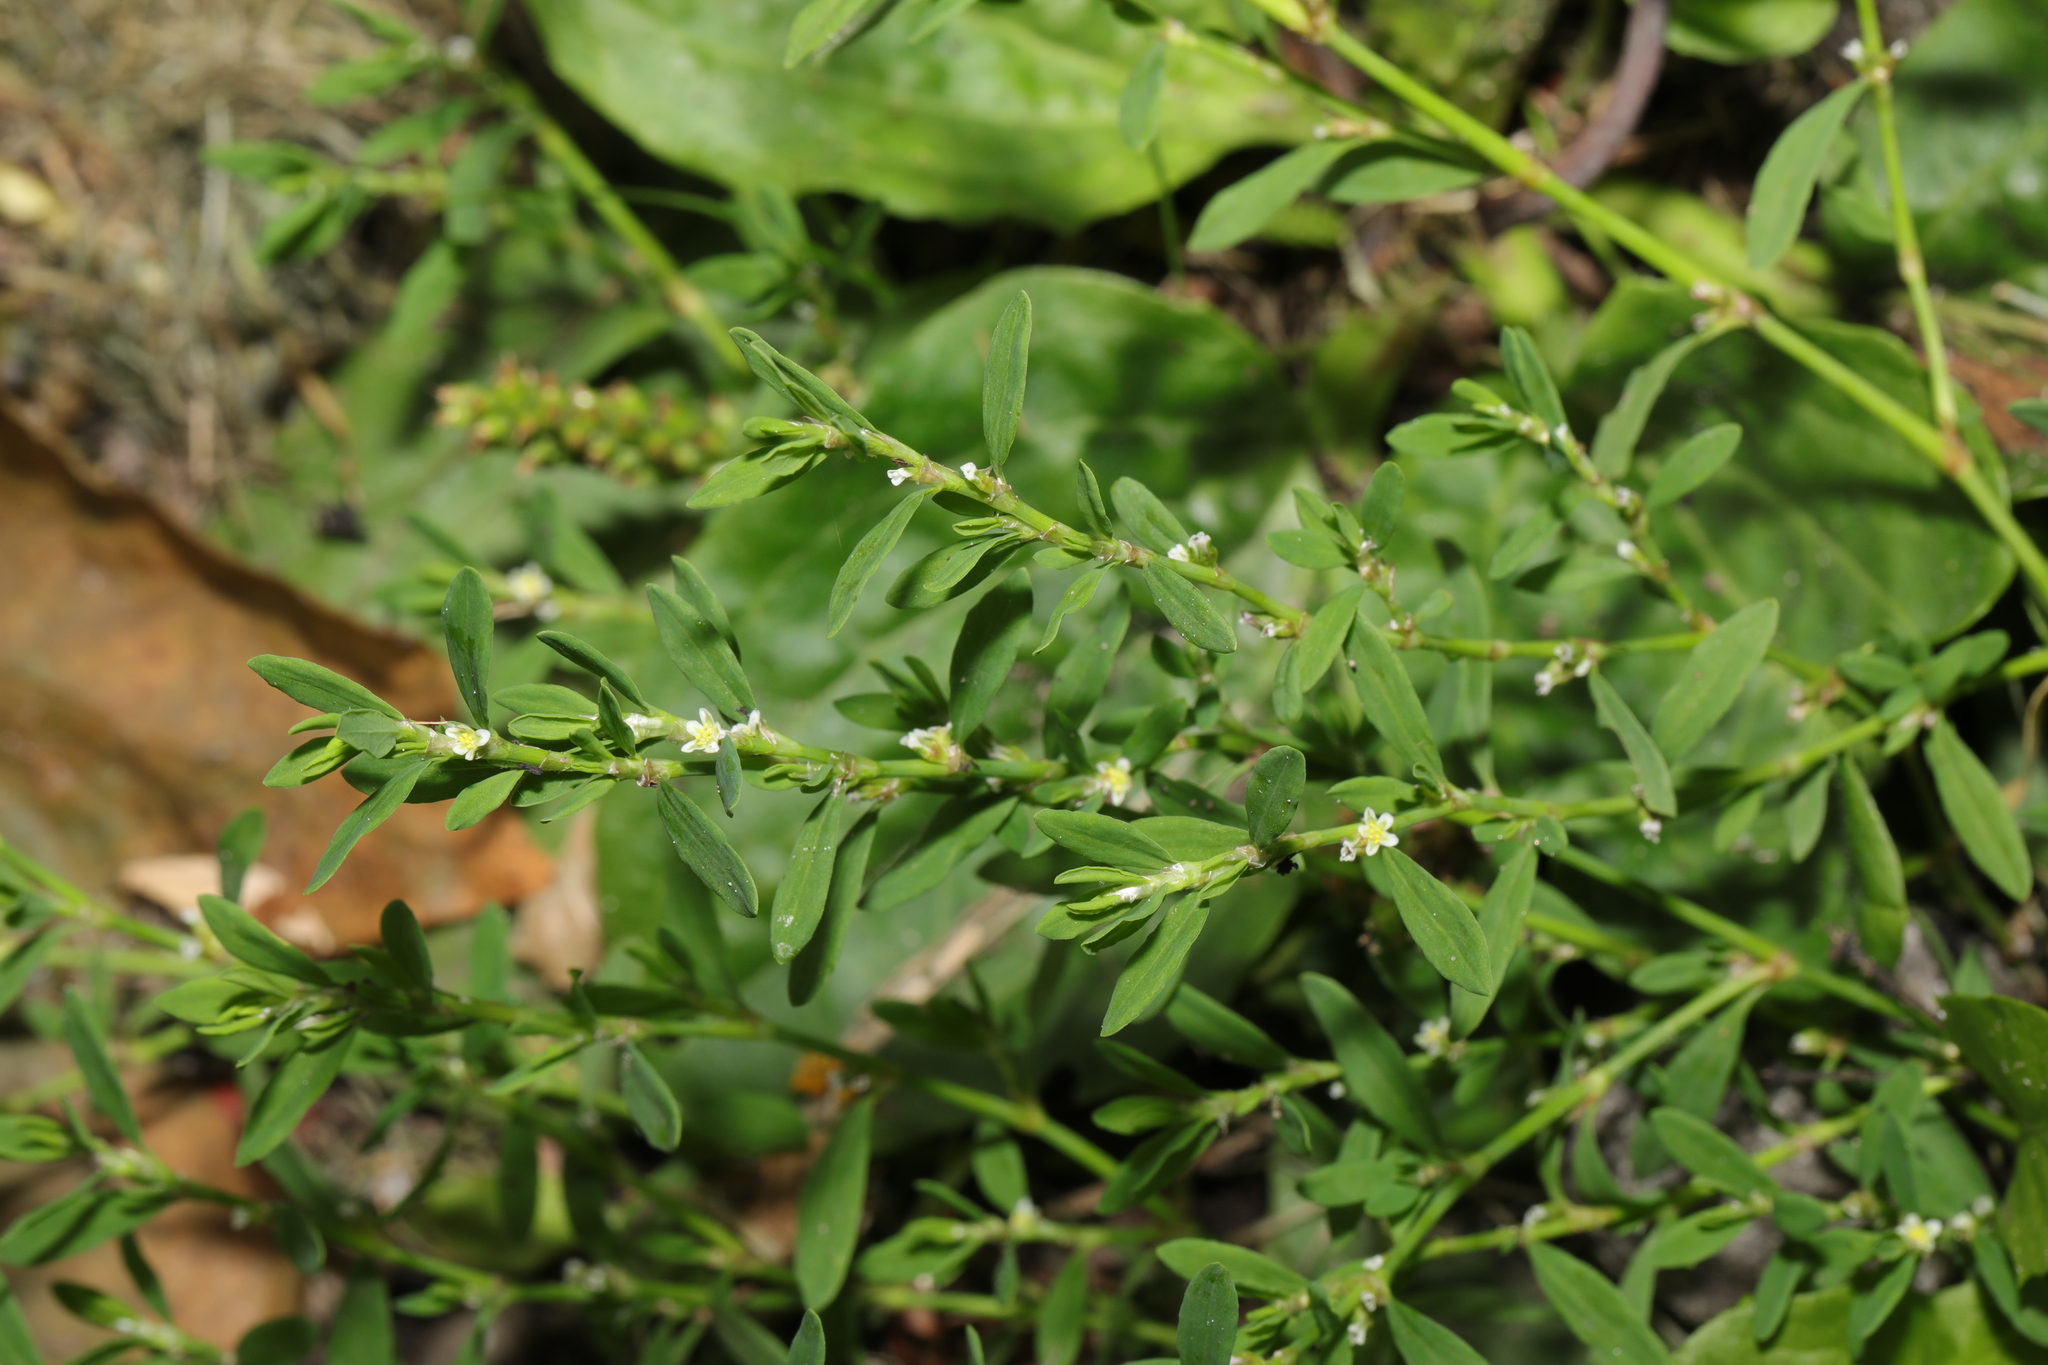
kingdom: Plantae
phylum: Tracheophyta
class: Magnoliopsida
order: Caryophyllales
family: Polygonaceae
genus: Polygonum
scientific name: Polygonum aviculare
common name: Prostrate knotweed
